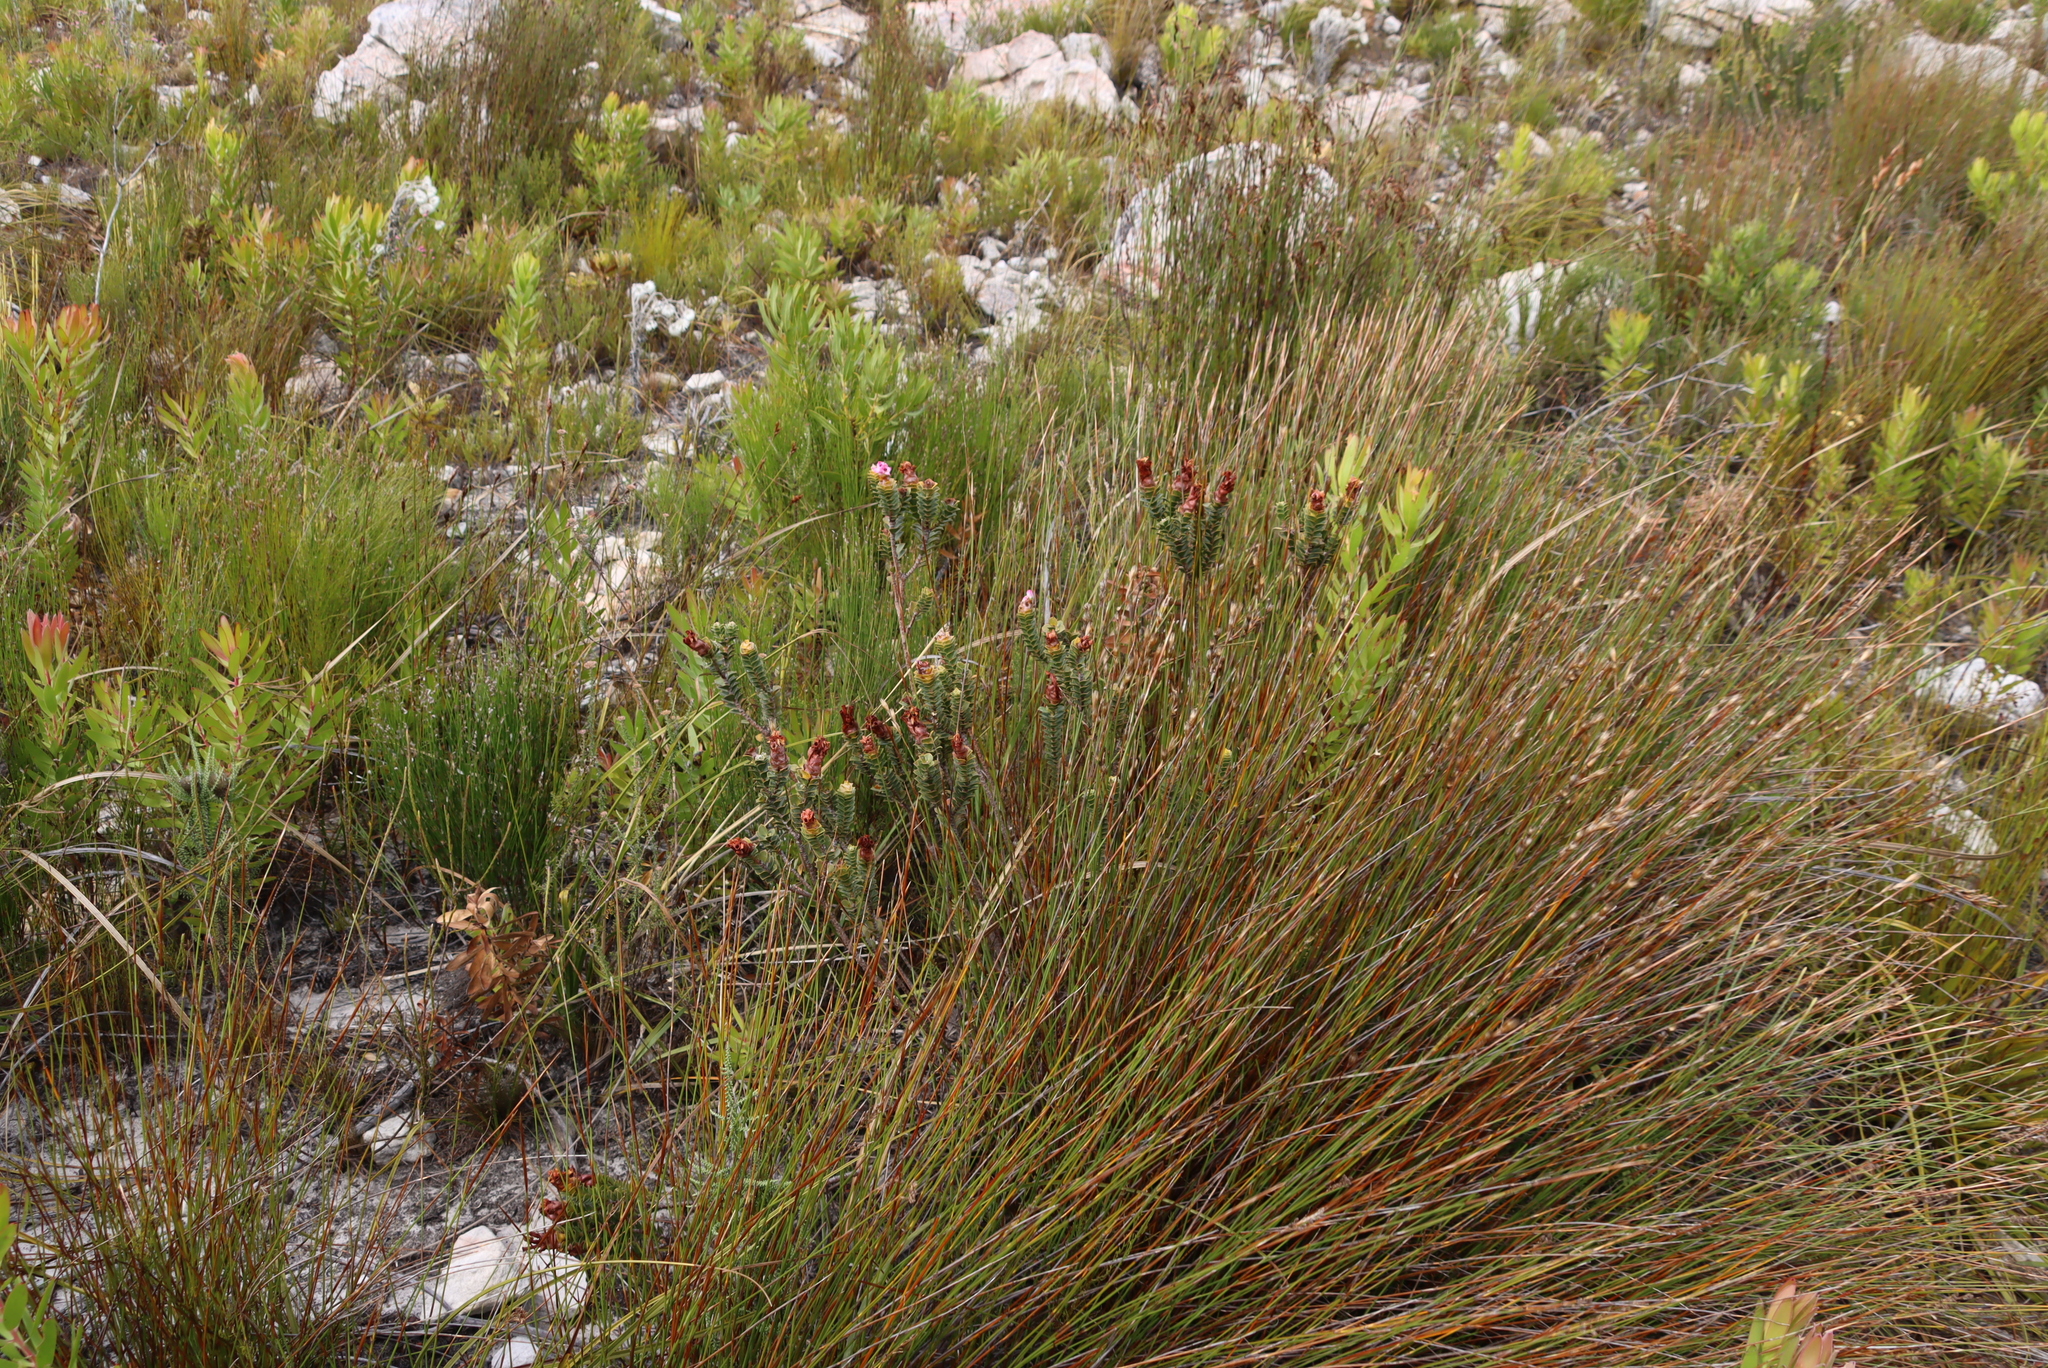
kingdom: Plantae
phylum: Tracheophyta
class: Magnoliopsida
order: Myrtales
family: Penaeaceae
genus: Saltera
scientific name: Saltera sarcocolla
